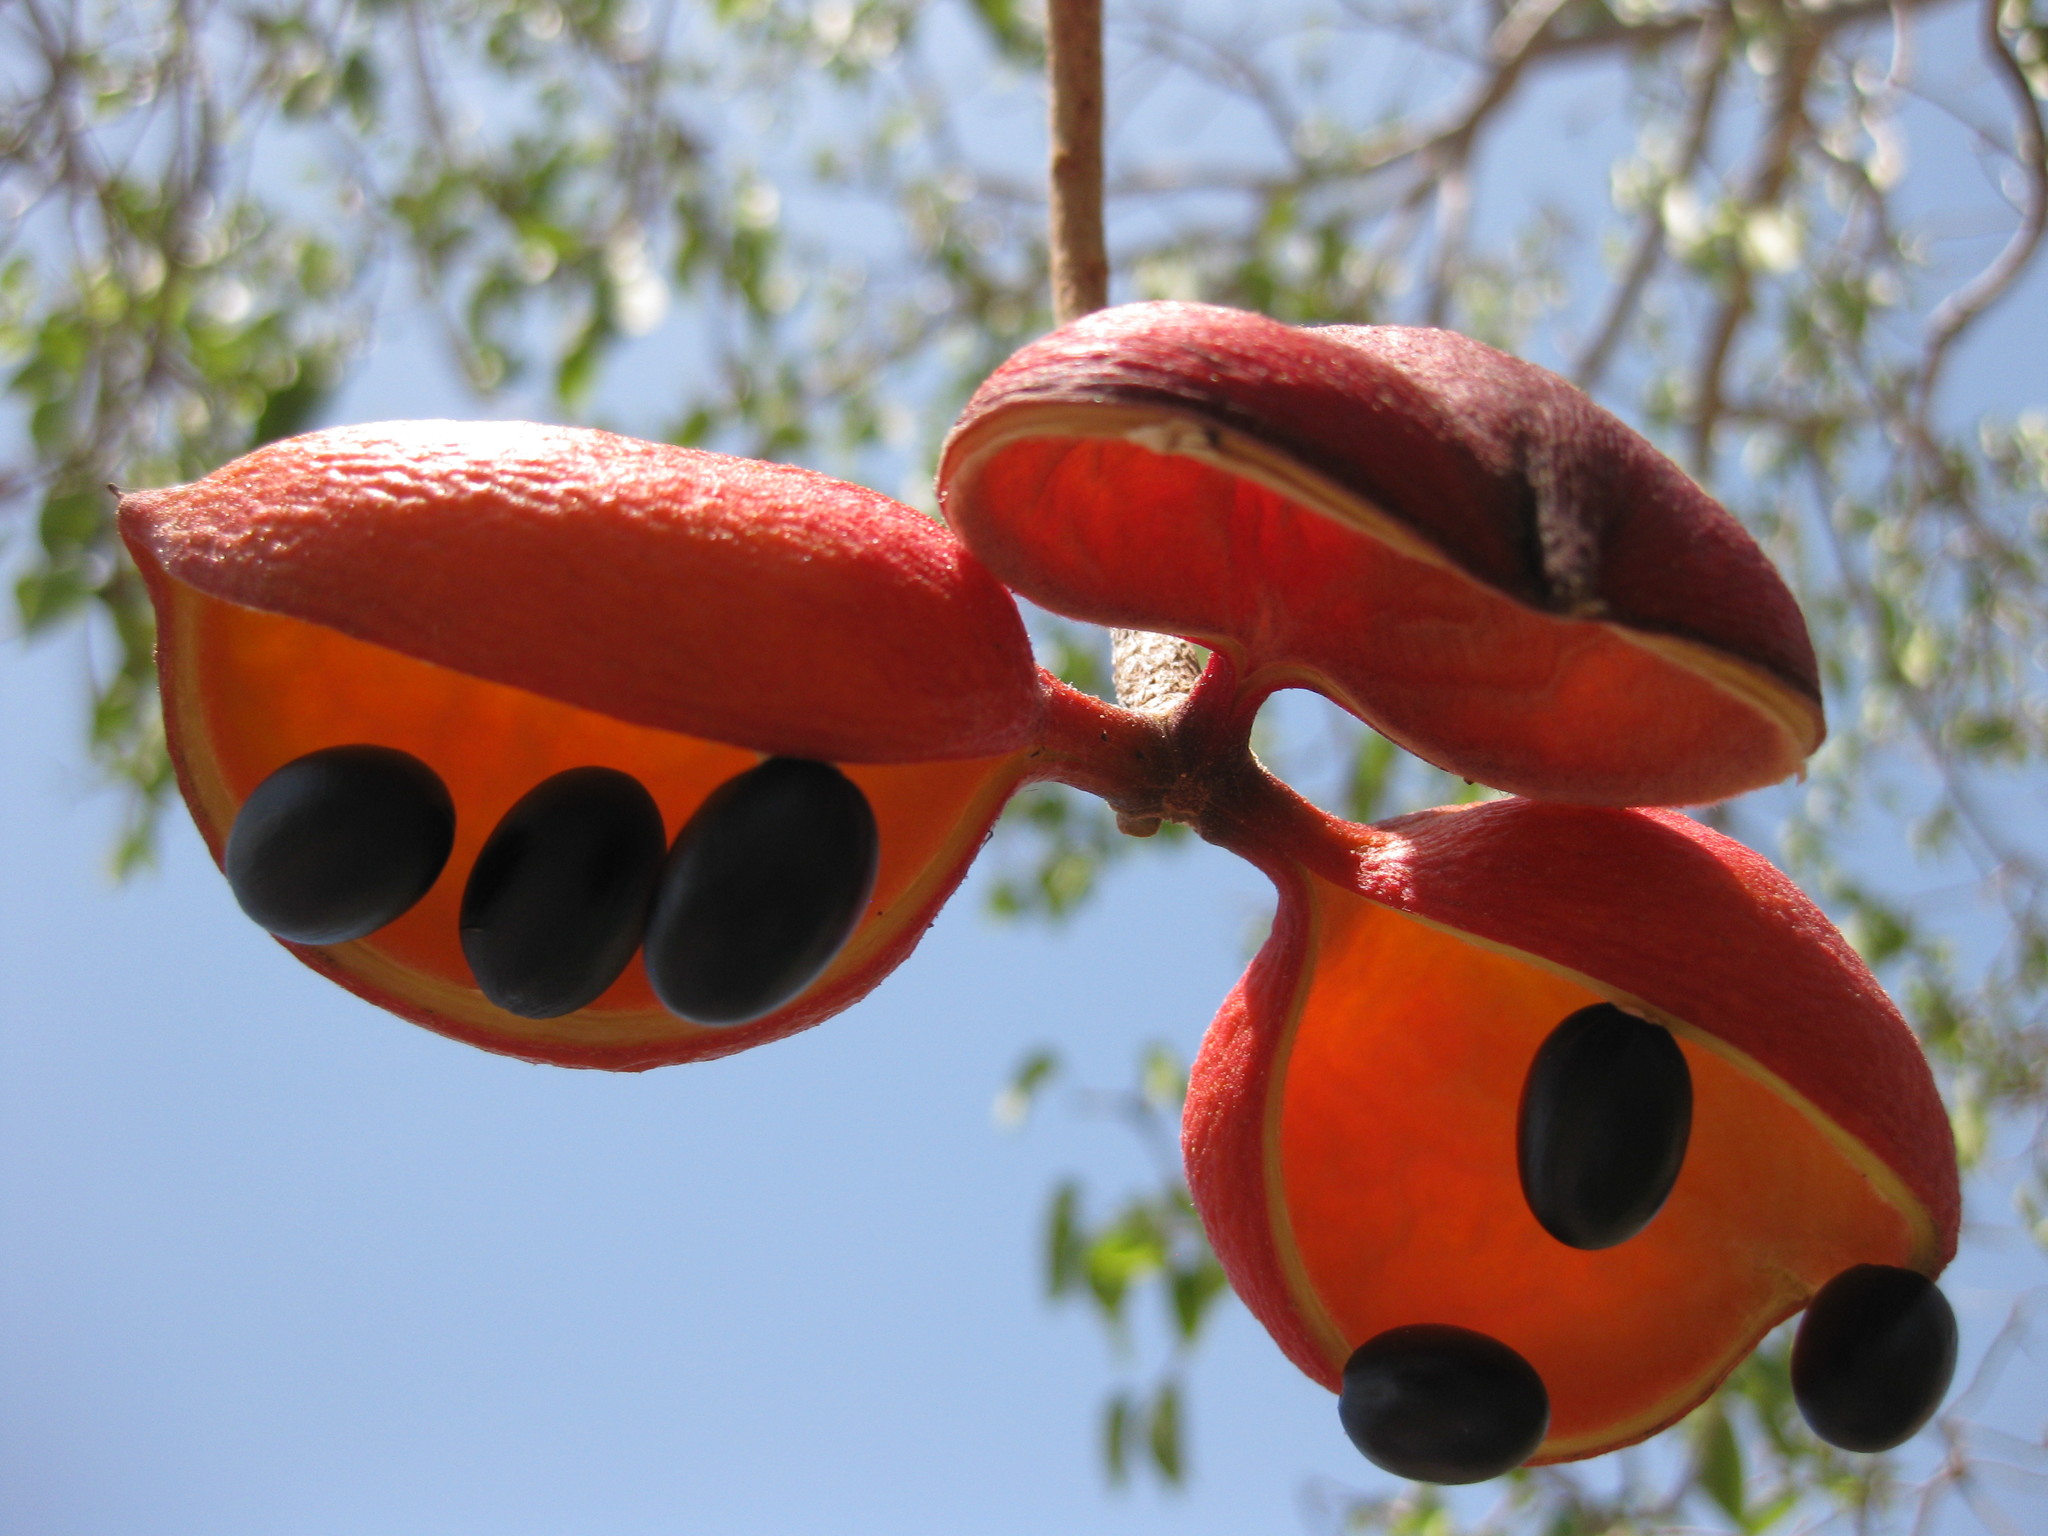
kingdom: Plantae
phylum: Tracheophyta
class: Magnoliopsida
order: Malvales
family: Malvaceae
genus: Sterculia
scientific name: Sterculia quadrifida
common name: Orange-fruit kurrajong
